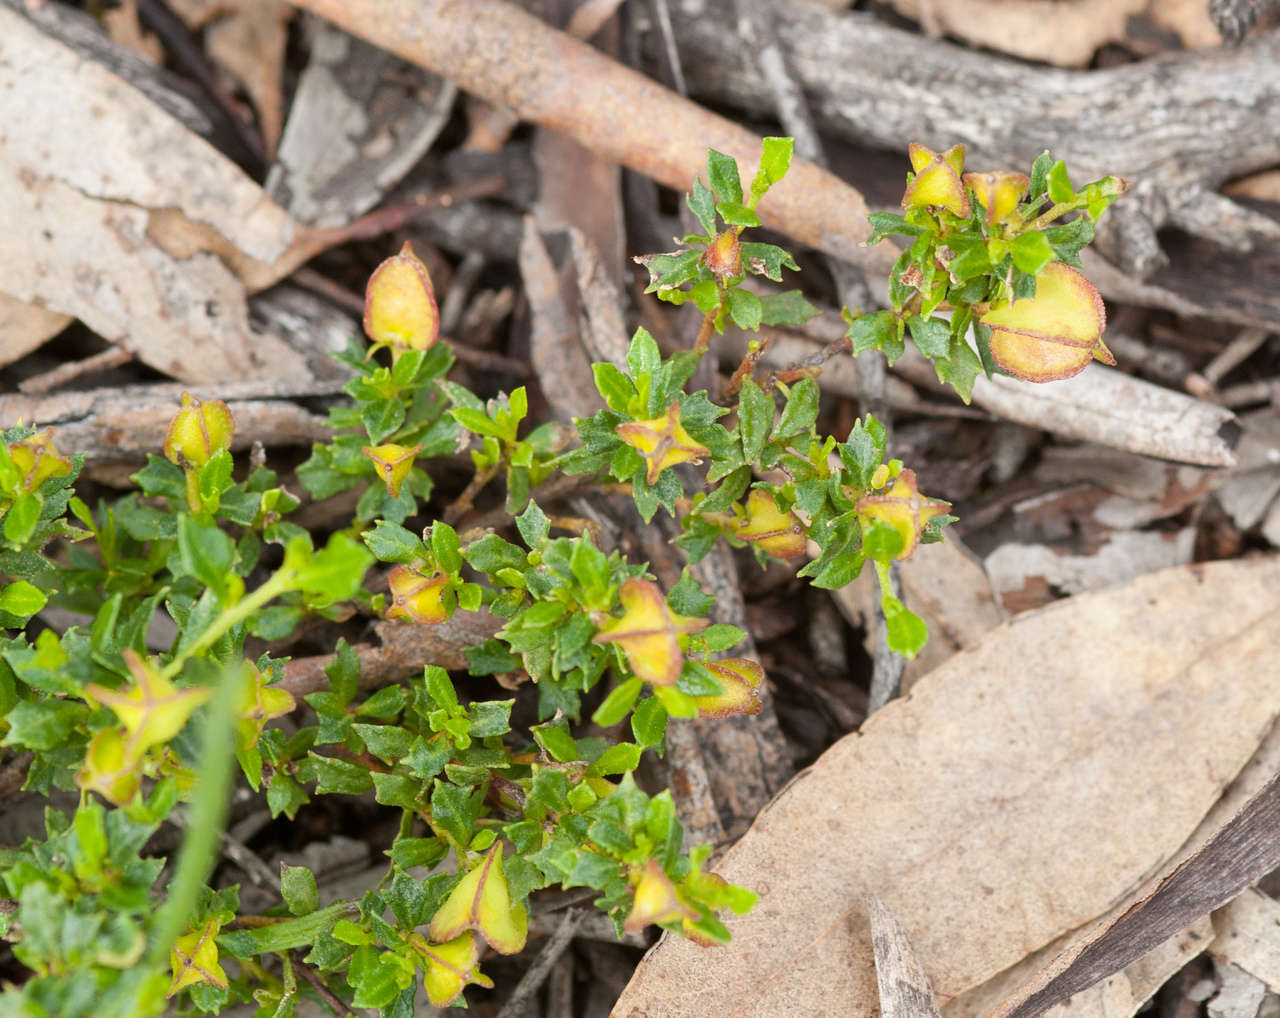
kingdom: Plantae
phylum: Tracheophyta
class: Magnoliopsida
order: Sapindales
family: Sapindaceae
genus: Dodonaea
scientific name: Dodonaea procumbens
